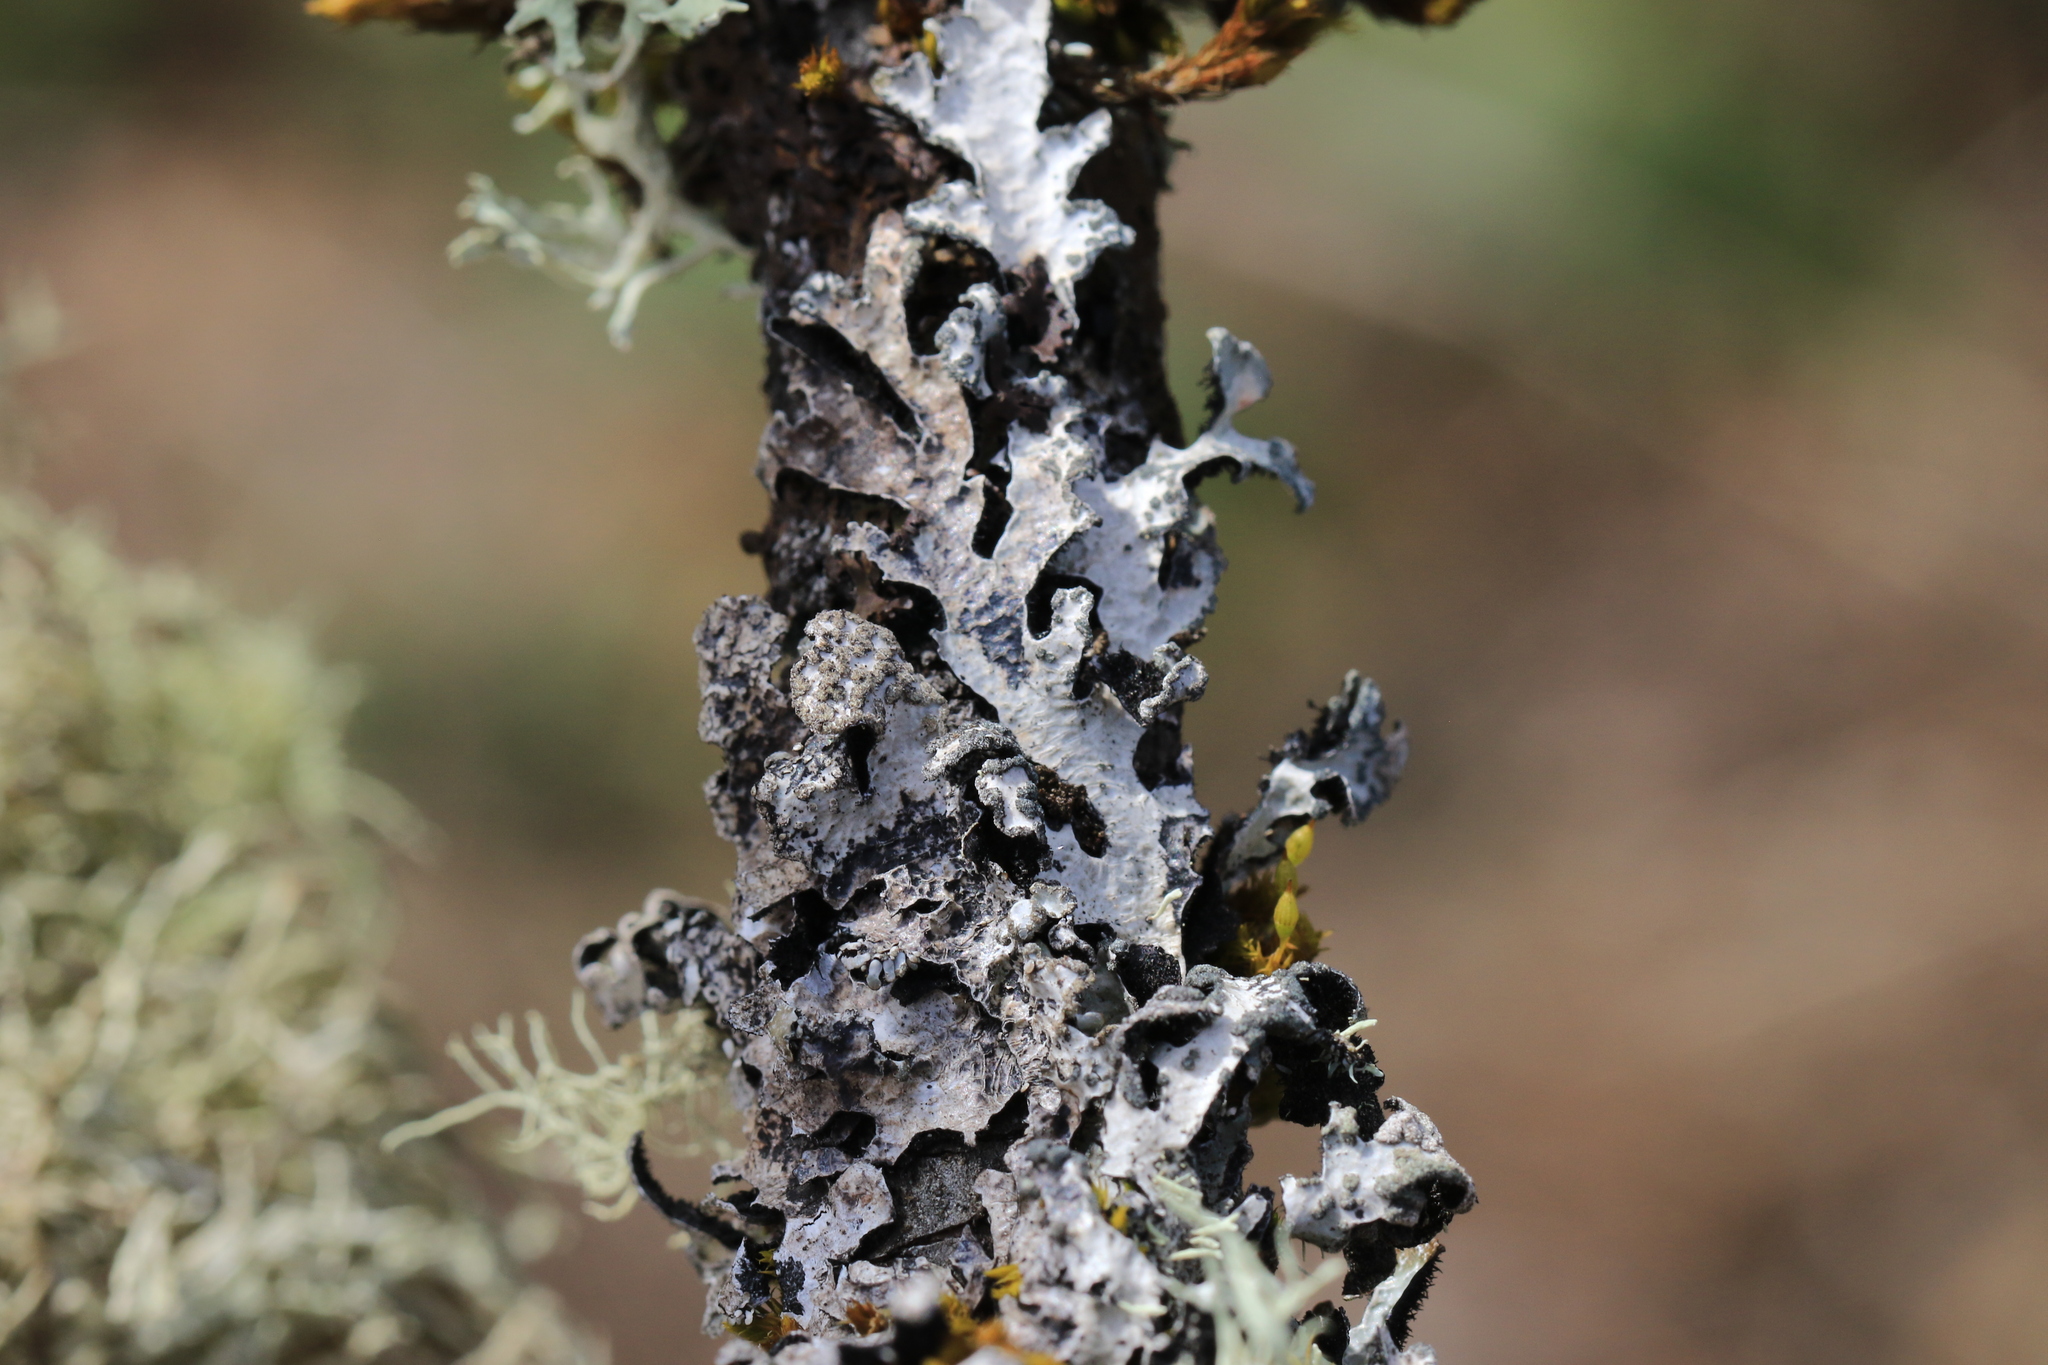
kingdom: Fungi
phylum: Ascomycota
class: Lecanoromycetes
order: Lecanorales
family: Parmeliaceae
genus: Parmelia
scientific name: Parmelia sulcata
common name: Netted shield lichen
